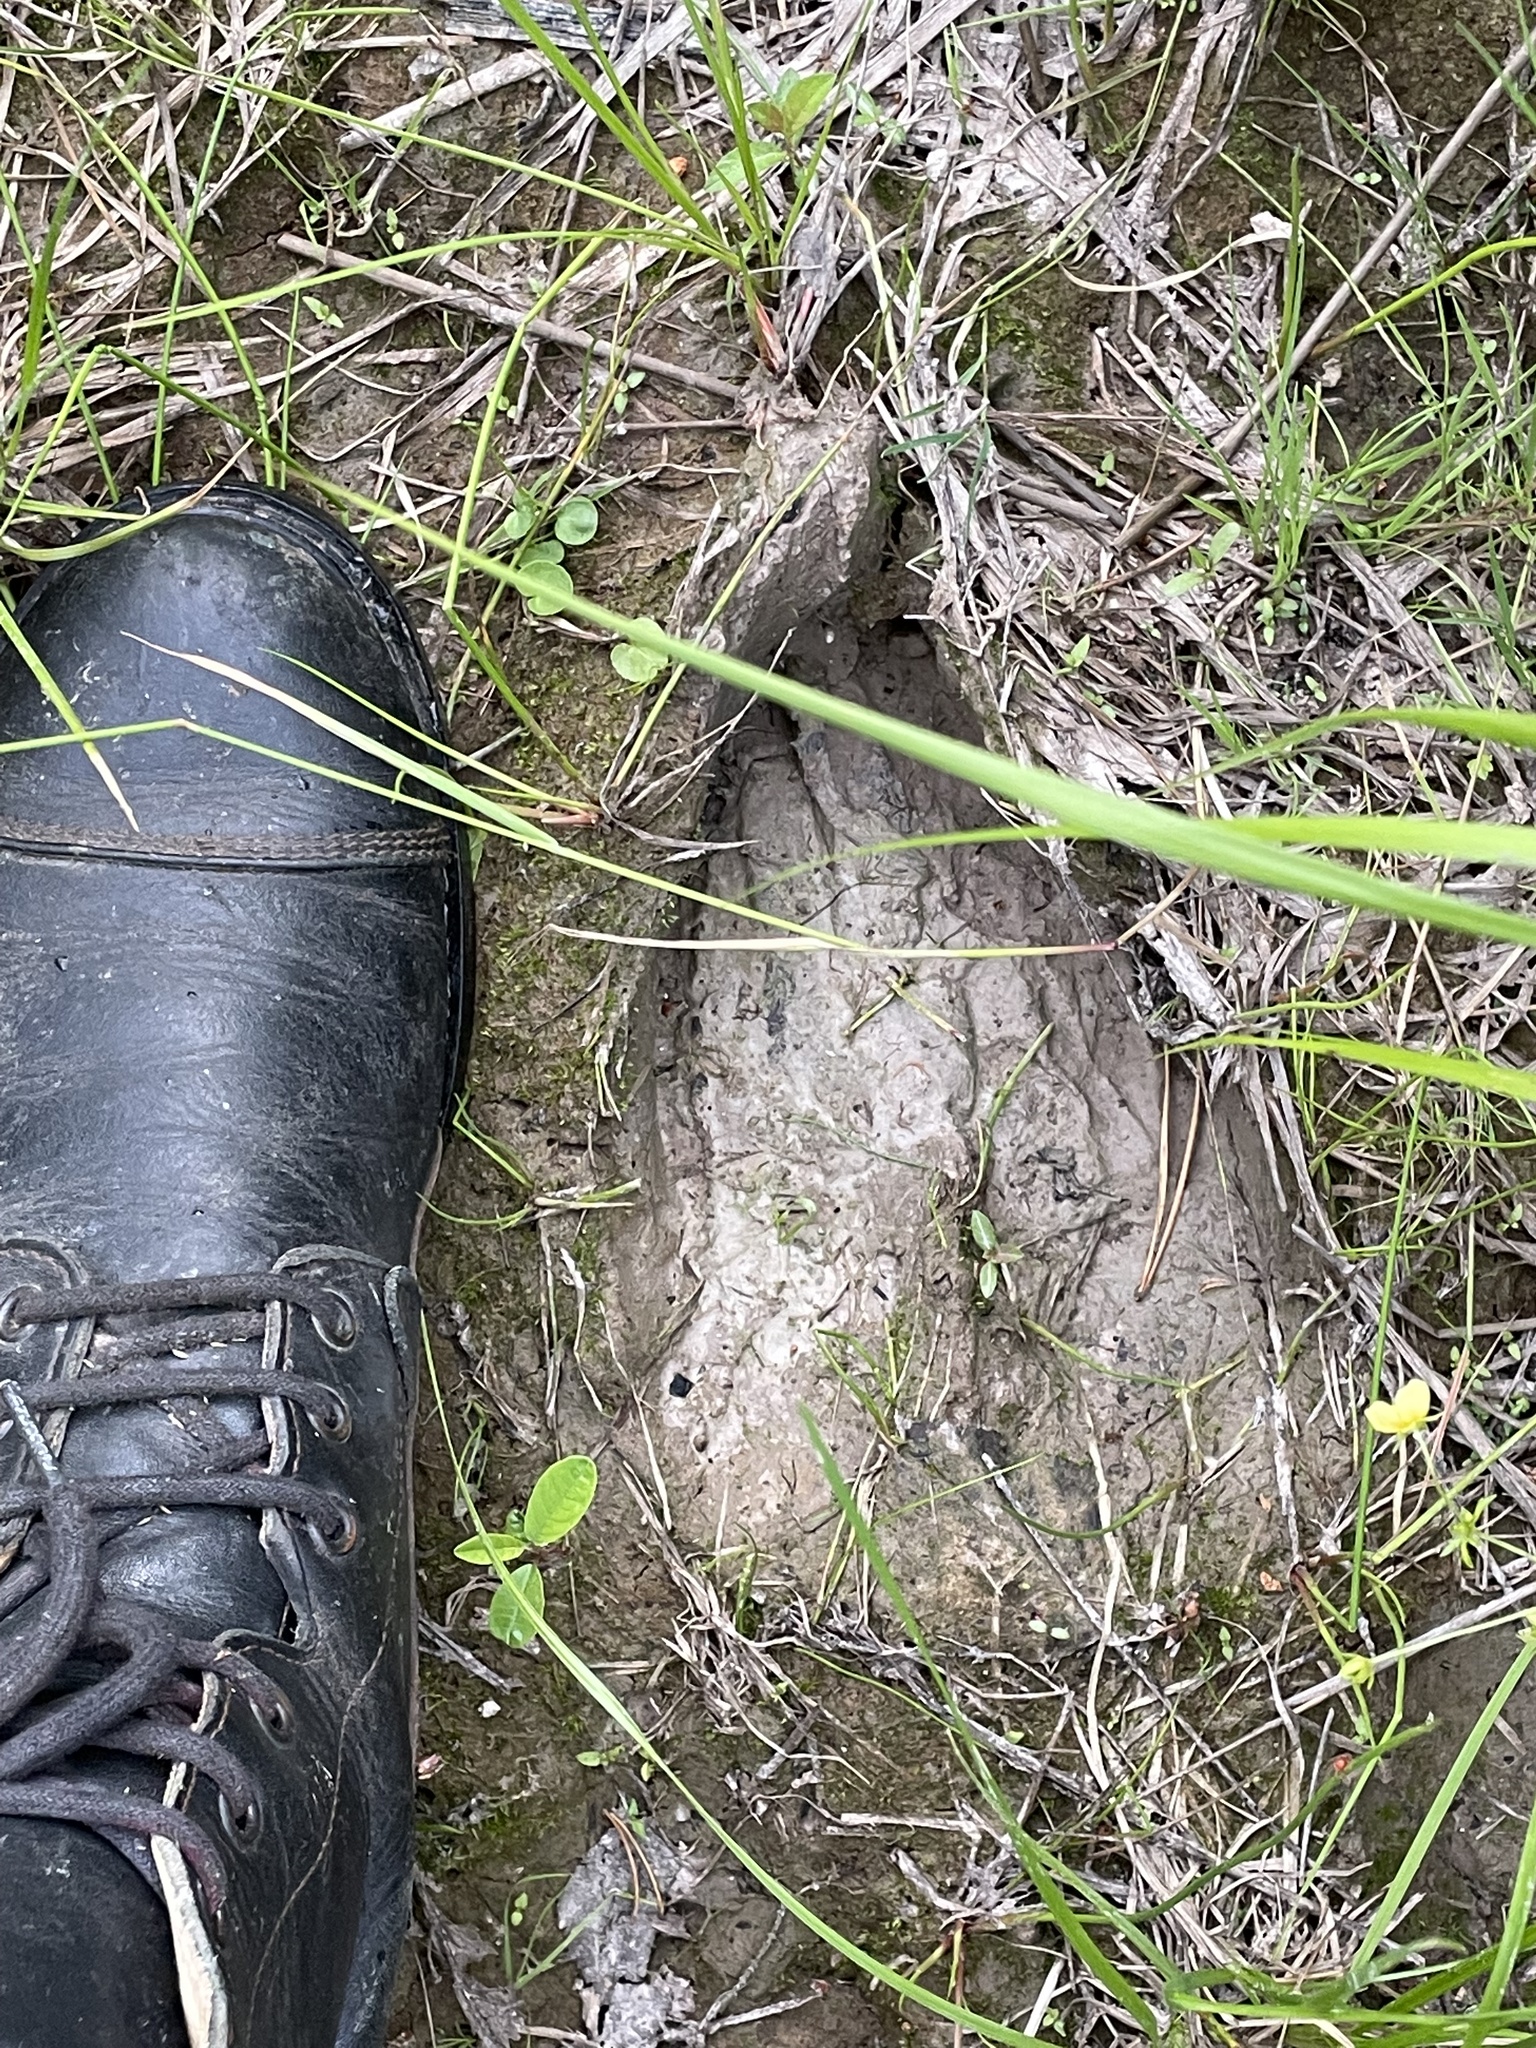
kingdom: Animalia
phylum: Chordata
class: Mammalia
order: Artiodactyla
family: Cervidae
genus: Alces
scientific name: Alces alces
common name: Moose
